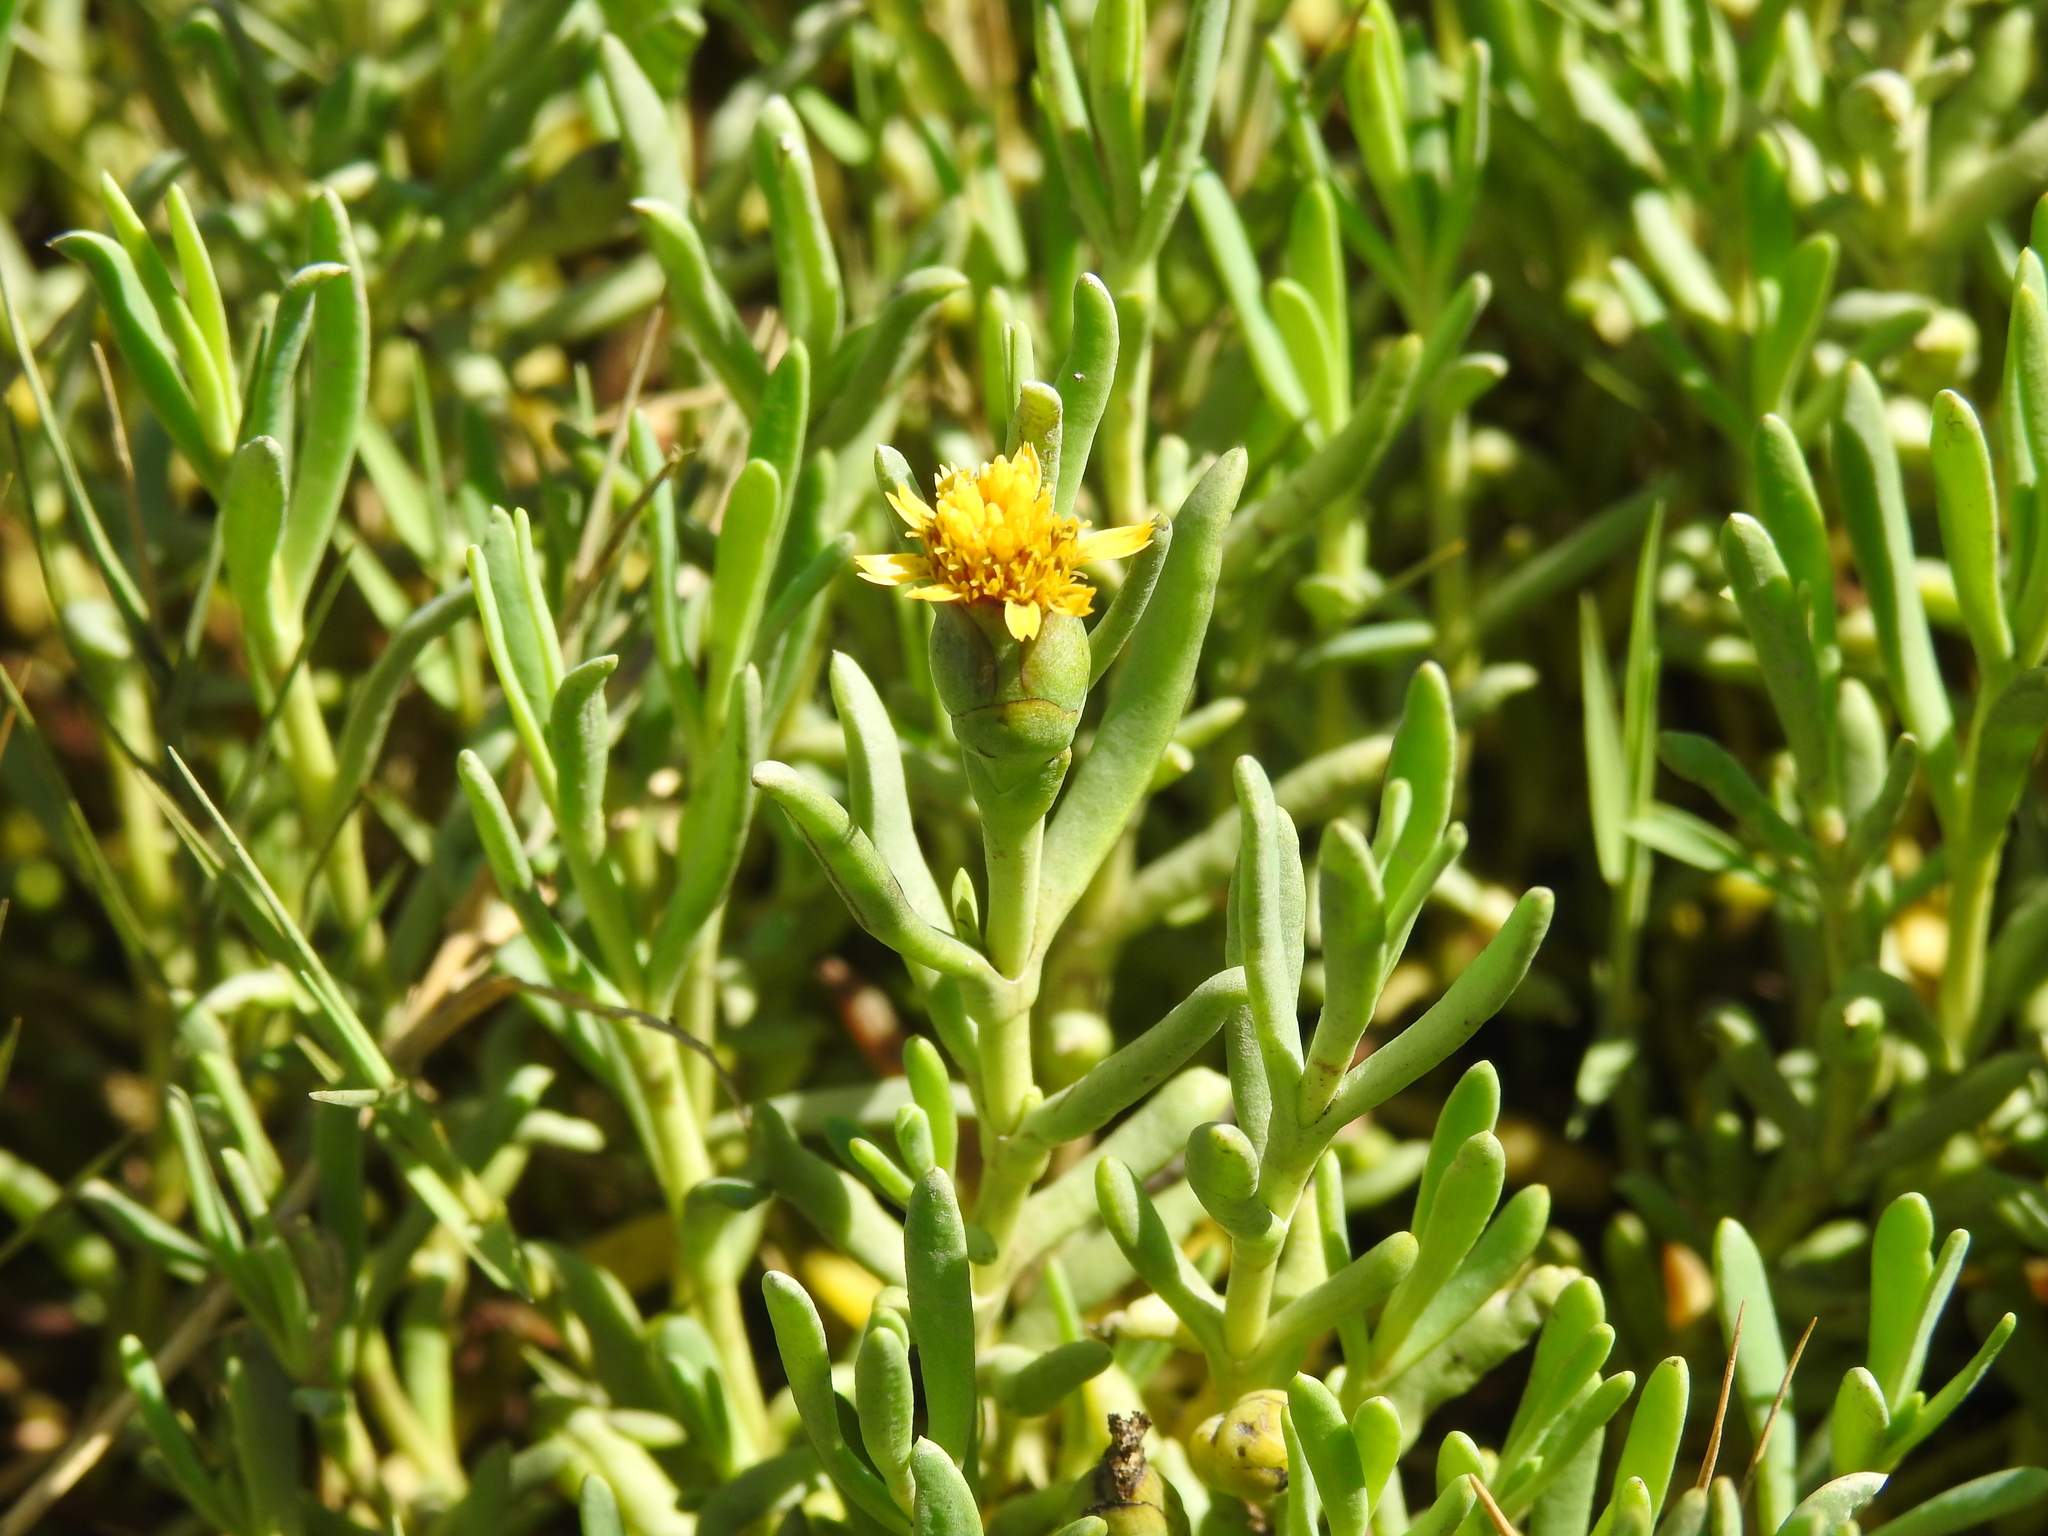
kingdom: Plantae
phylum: Tracheophyta
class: Magnoliopsida
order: Asterales
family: Asteraceae
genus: Jaumea
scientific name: Jaumea carnosa
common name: Fleshy jaumea
